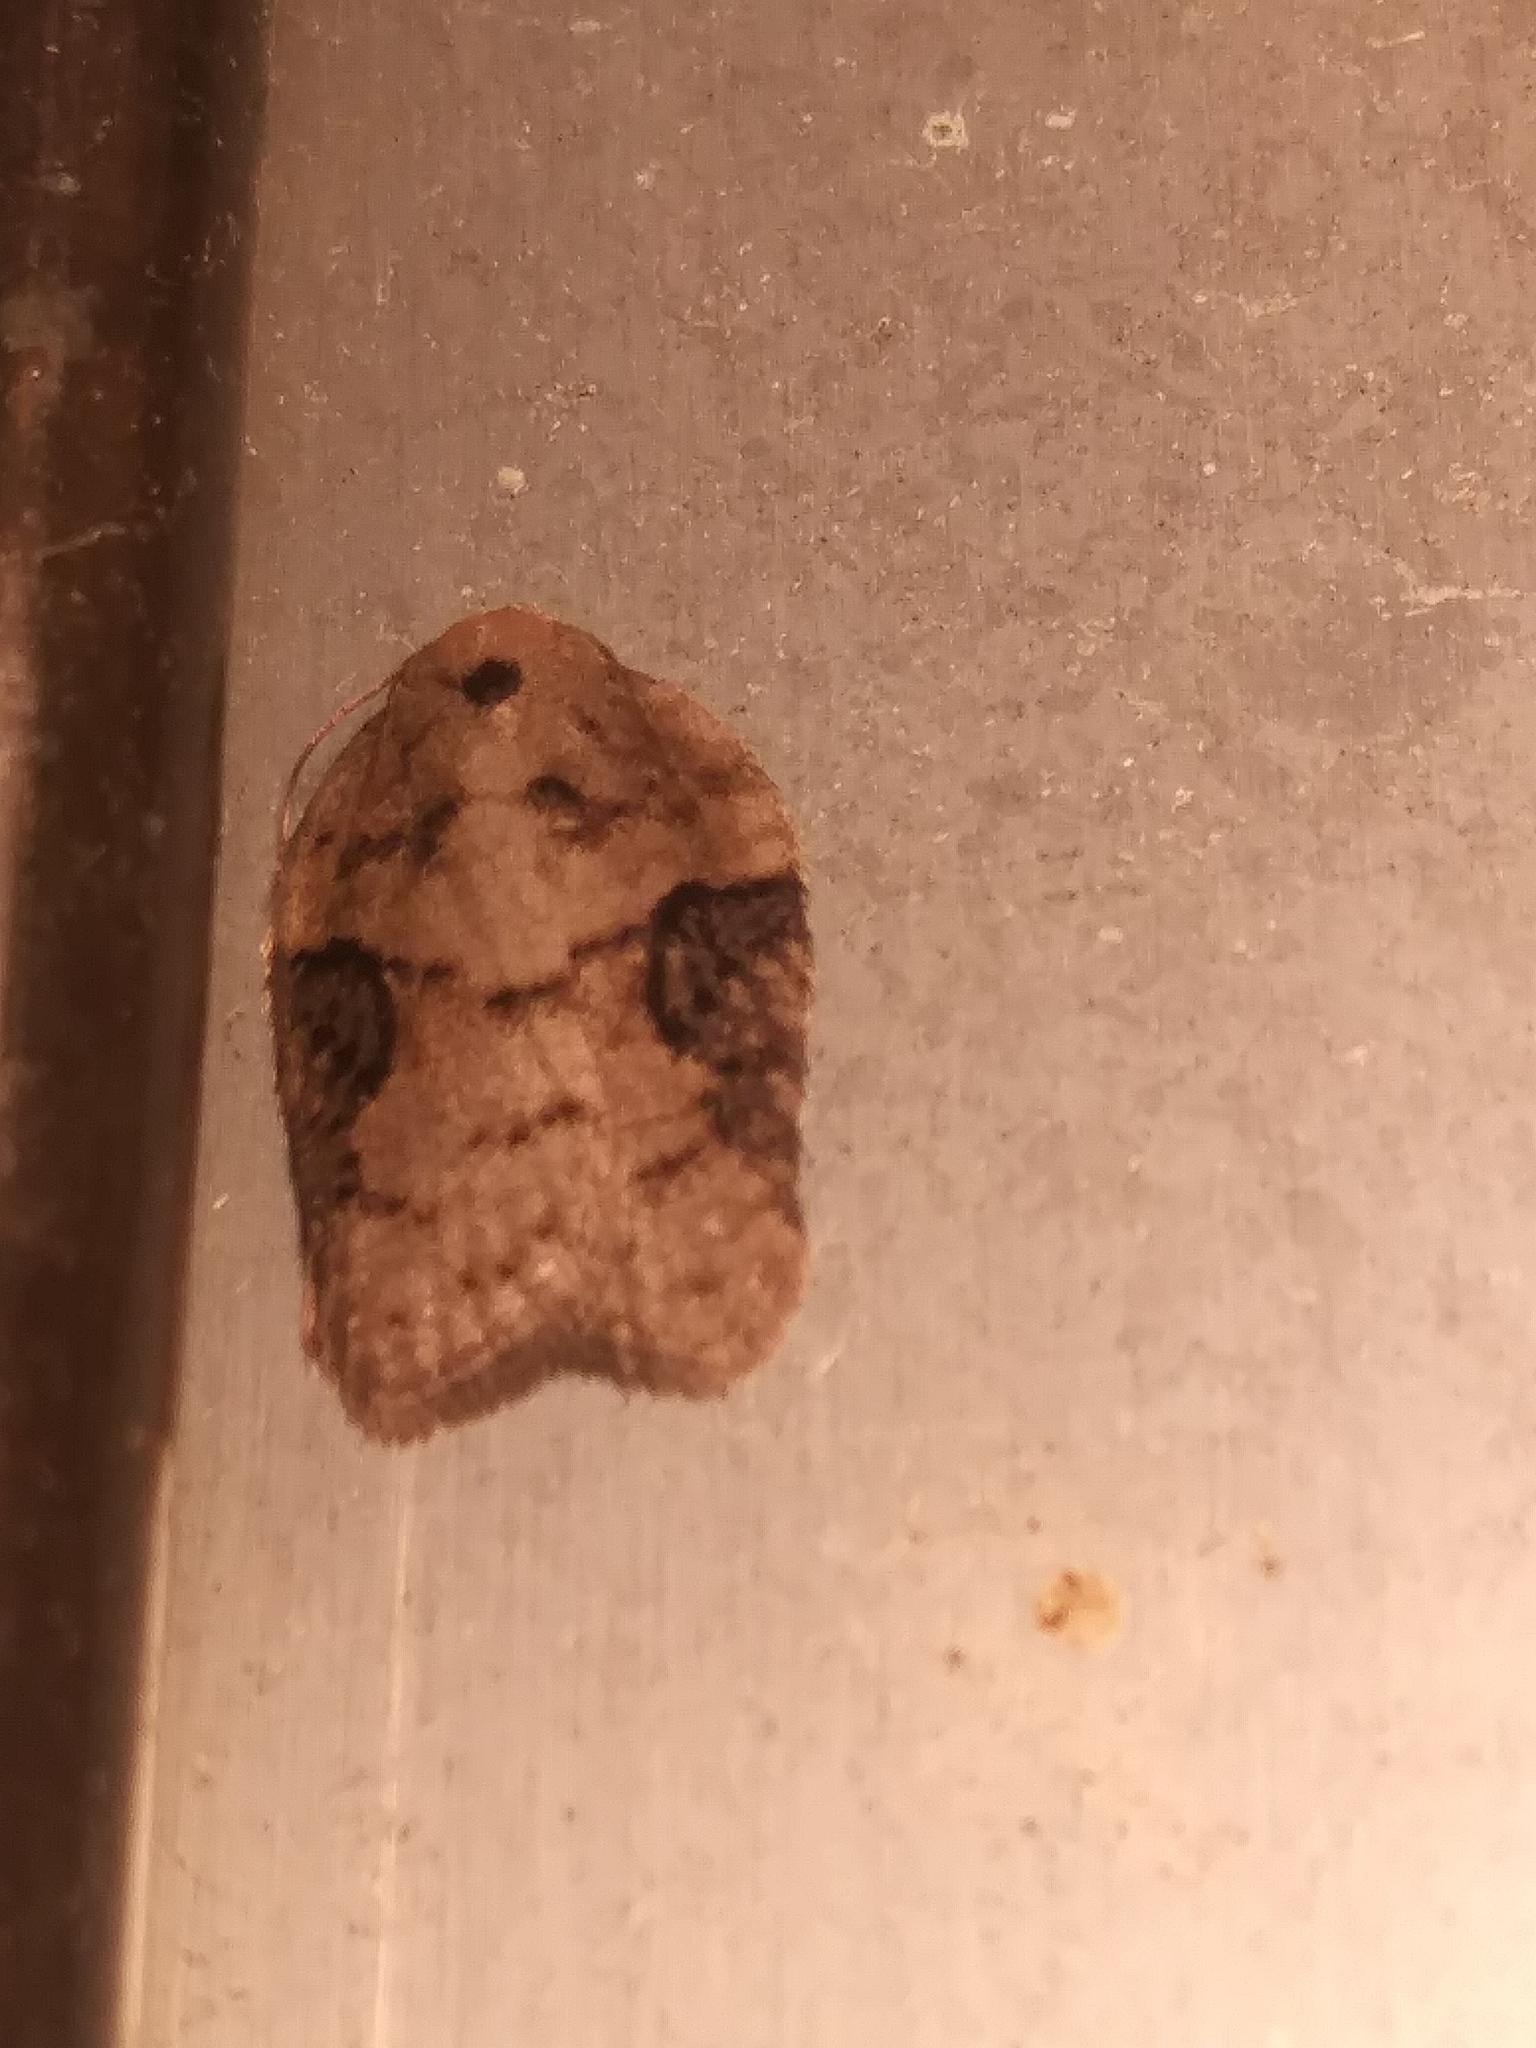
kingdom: Animalia
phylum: Arthropoda
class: Insecta
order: Lepidoptera
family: Tortricidae
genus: Acleris
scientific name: Acleris chalybeana
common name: Lesser maple leafroller
